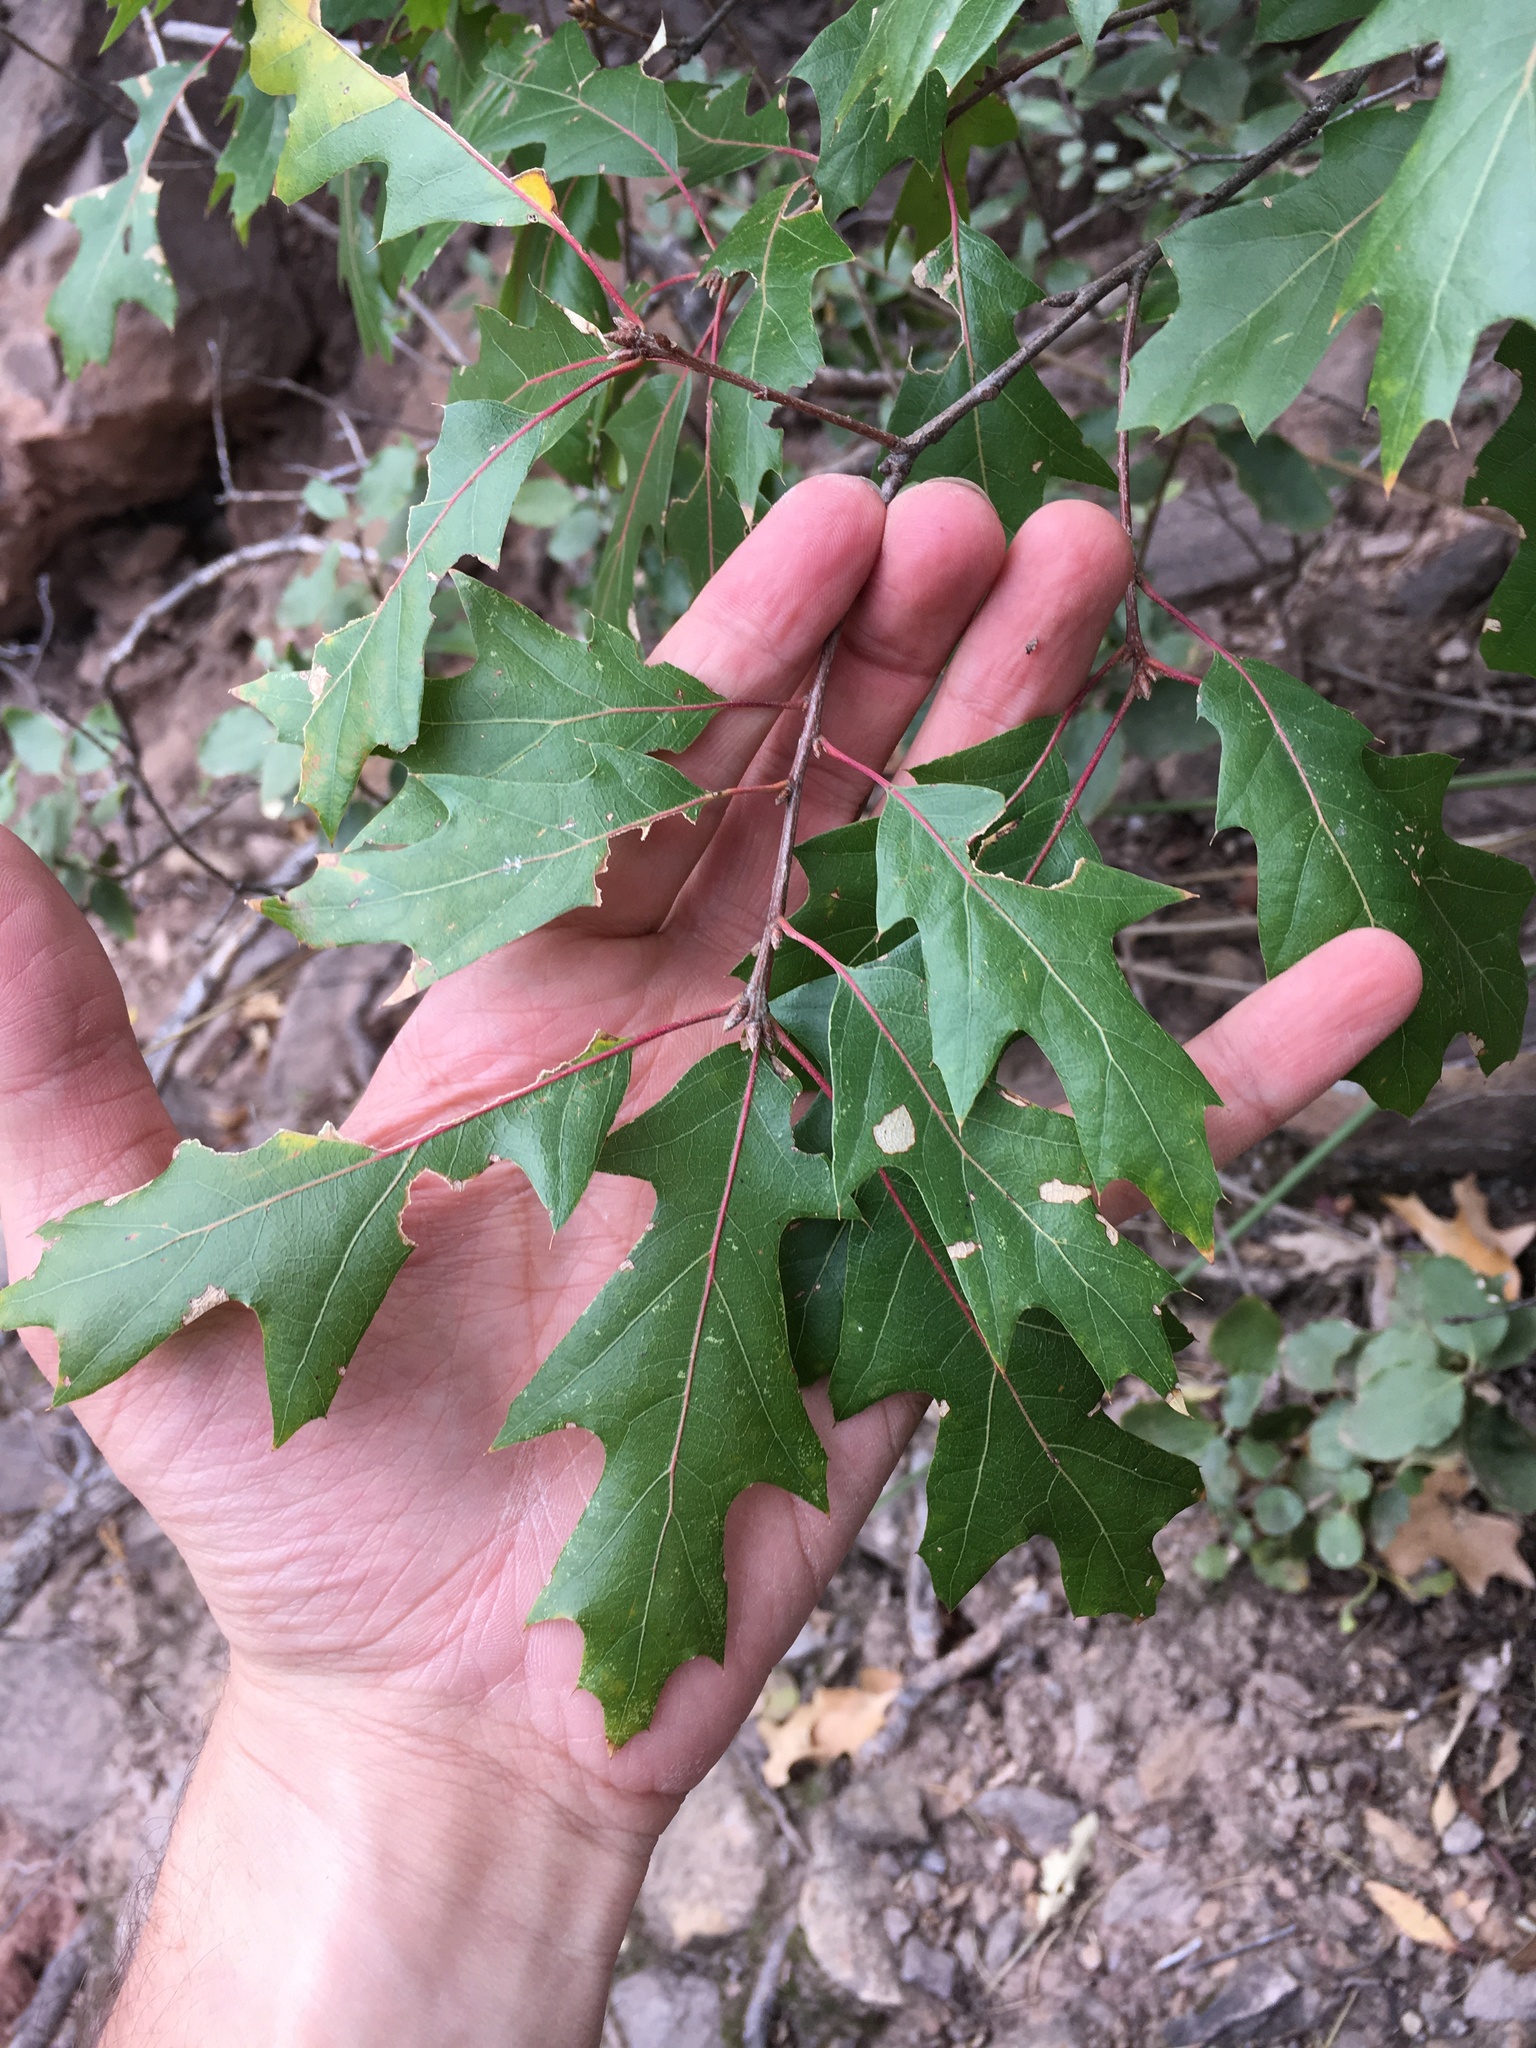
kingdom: Plantae
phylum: Tracheophyta
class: Magnoliopsida
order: Fagales
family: Fagaceae
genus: Quercus
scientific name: Quercus gravesii
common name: Chisos red oak
